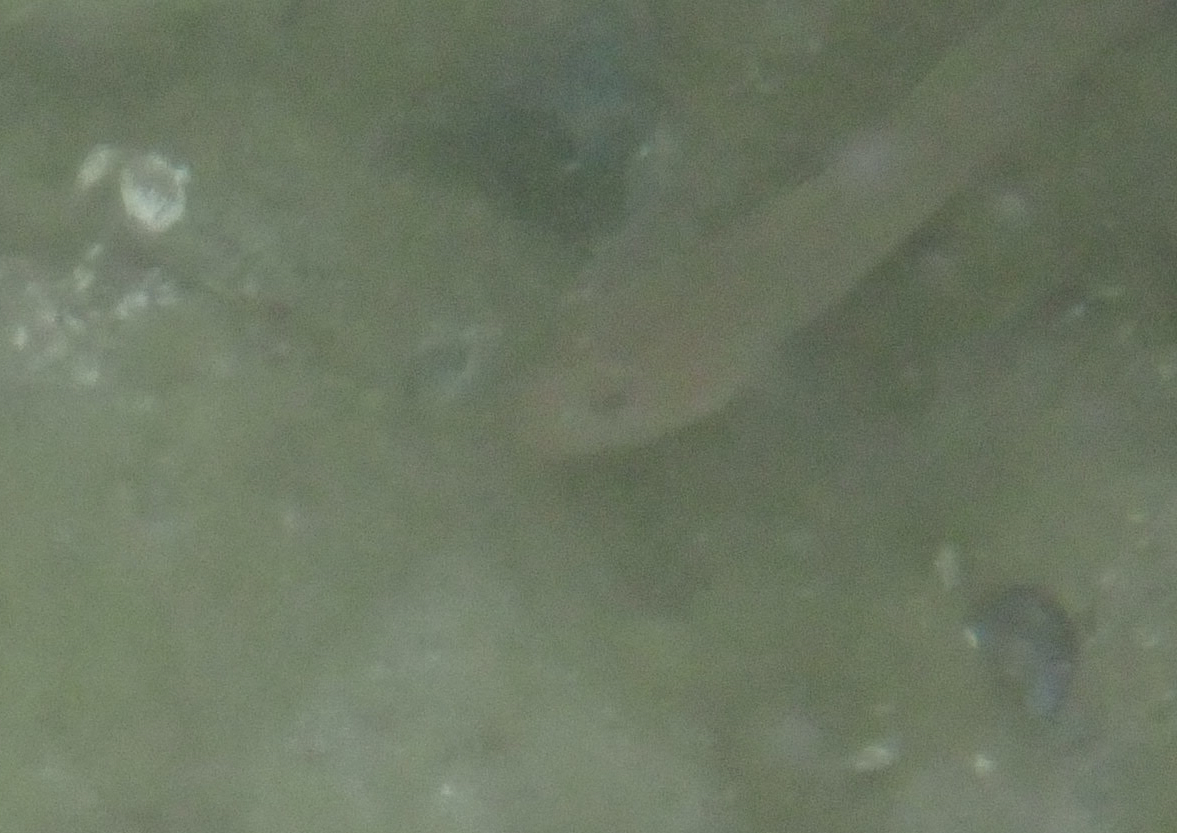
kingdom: Animalia
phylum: Chordata
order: Perciformes
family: Gobiidae
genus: Rhinogobiops
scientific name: Rhinogobiops nicholsii
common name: Blackeye goby
